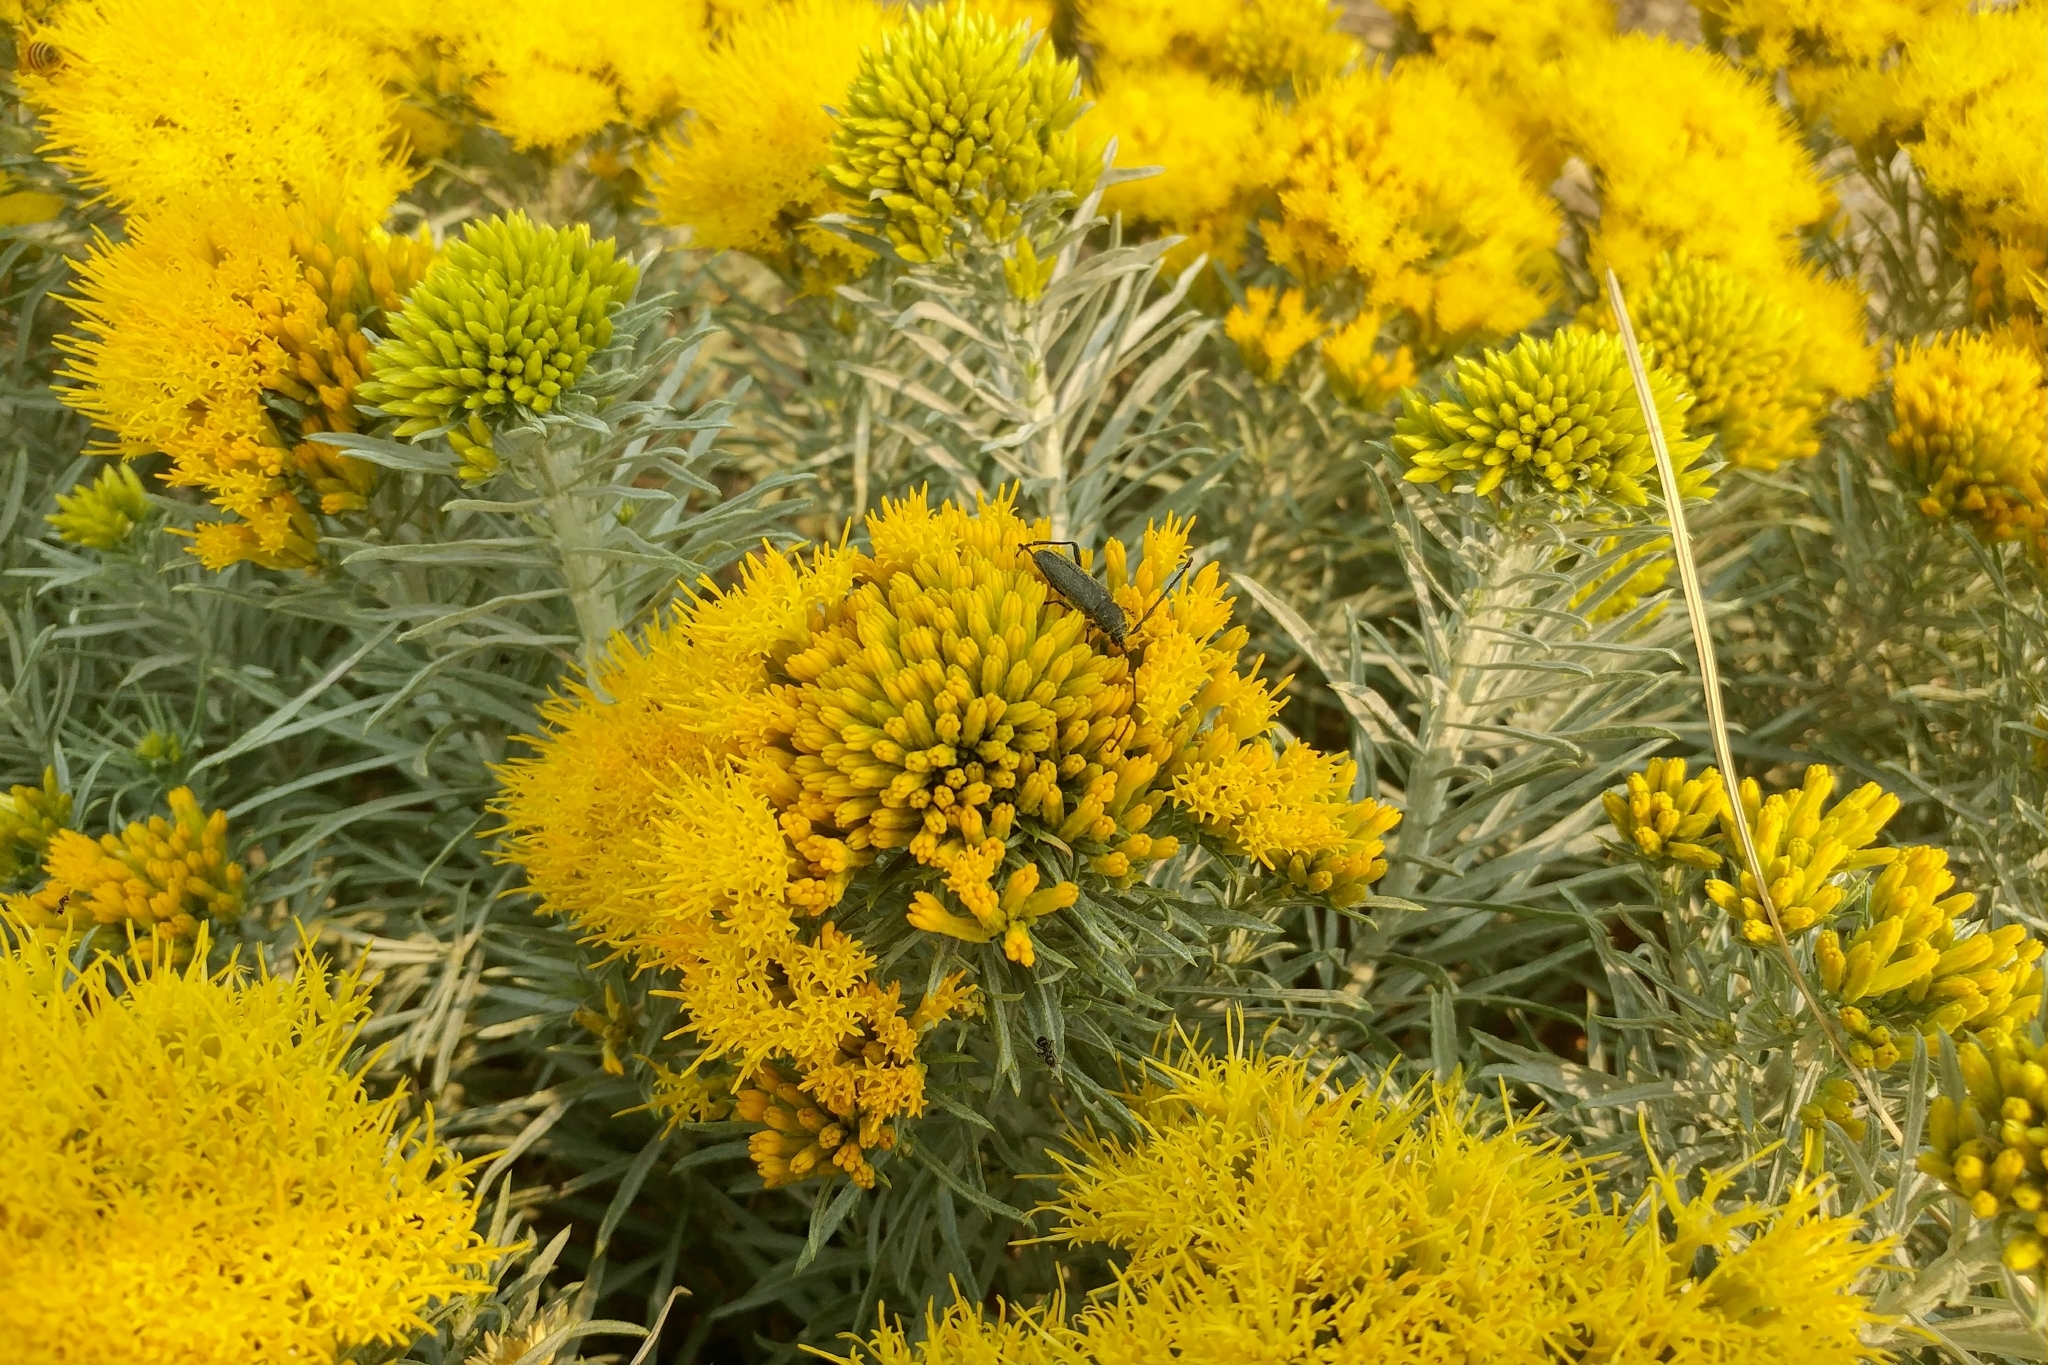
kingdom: Plantae
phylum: Tracheophyta
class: Magnoliopsida
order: Asterales
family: Asteraceae
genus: Ericameria
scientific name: Ericameria nauseosa
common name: Rubber rabbitbrush
